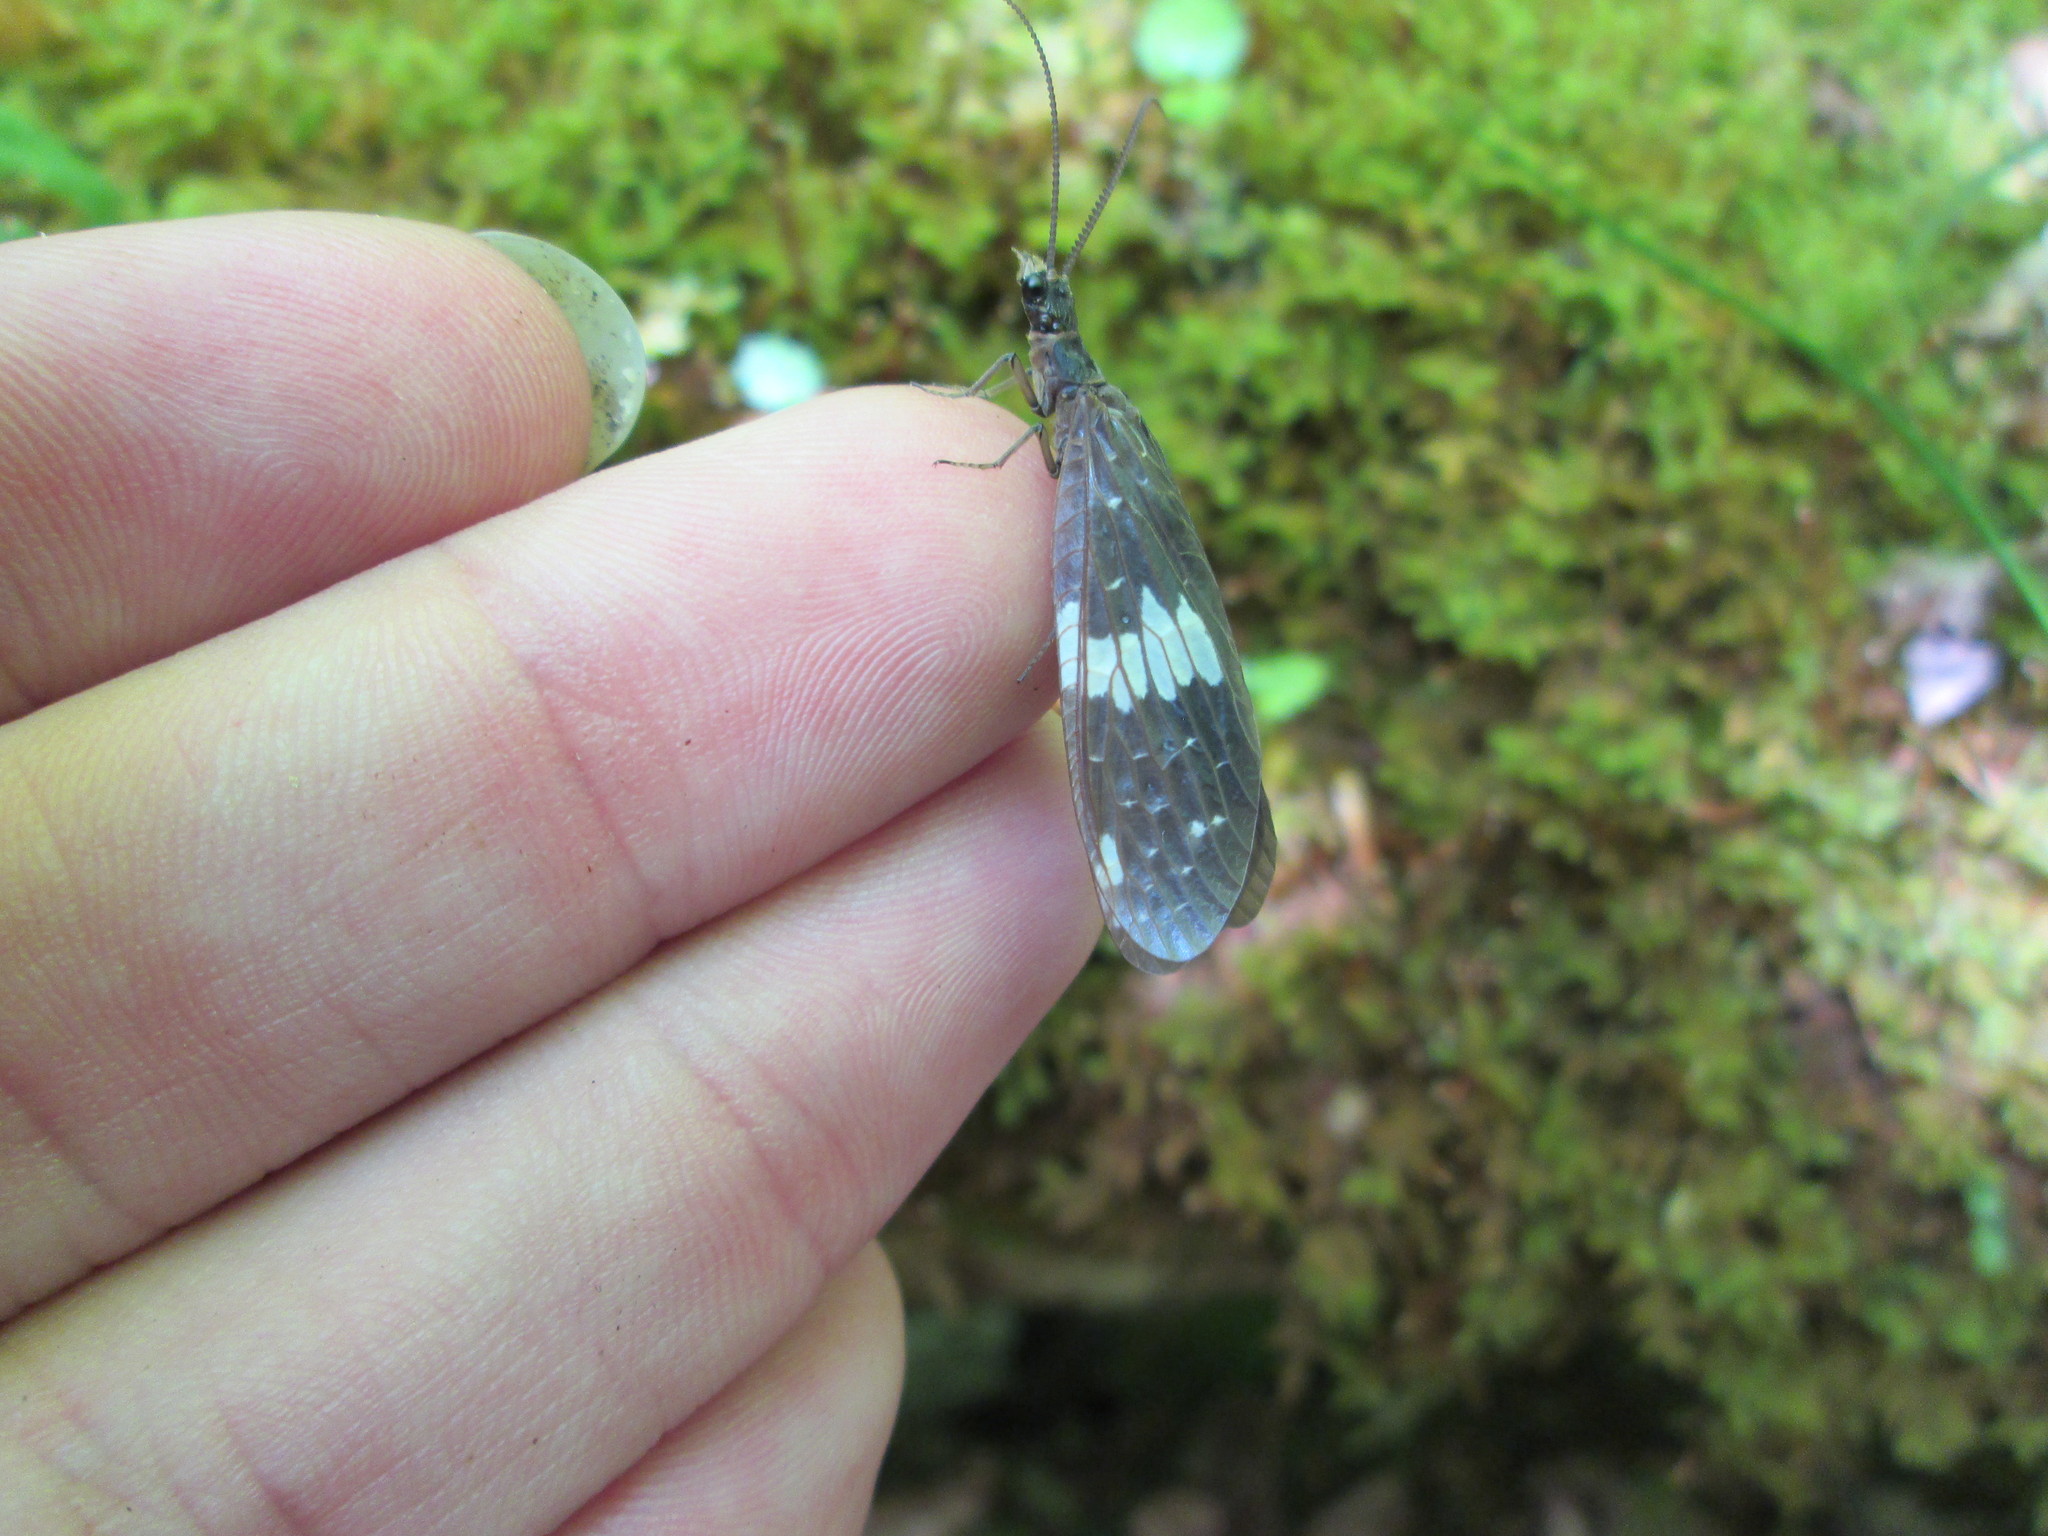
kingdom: Animalia
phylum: Arthropoda
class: Insecta
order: Megaloptera
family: Corydalidae
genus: Nigronia
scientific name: Nigronia serricornis
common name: Serrate dark fishfly
